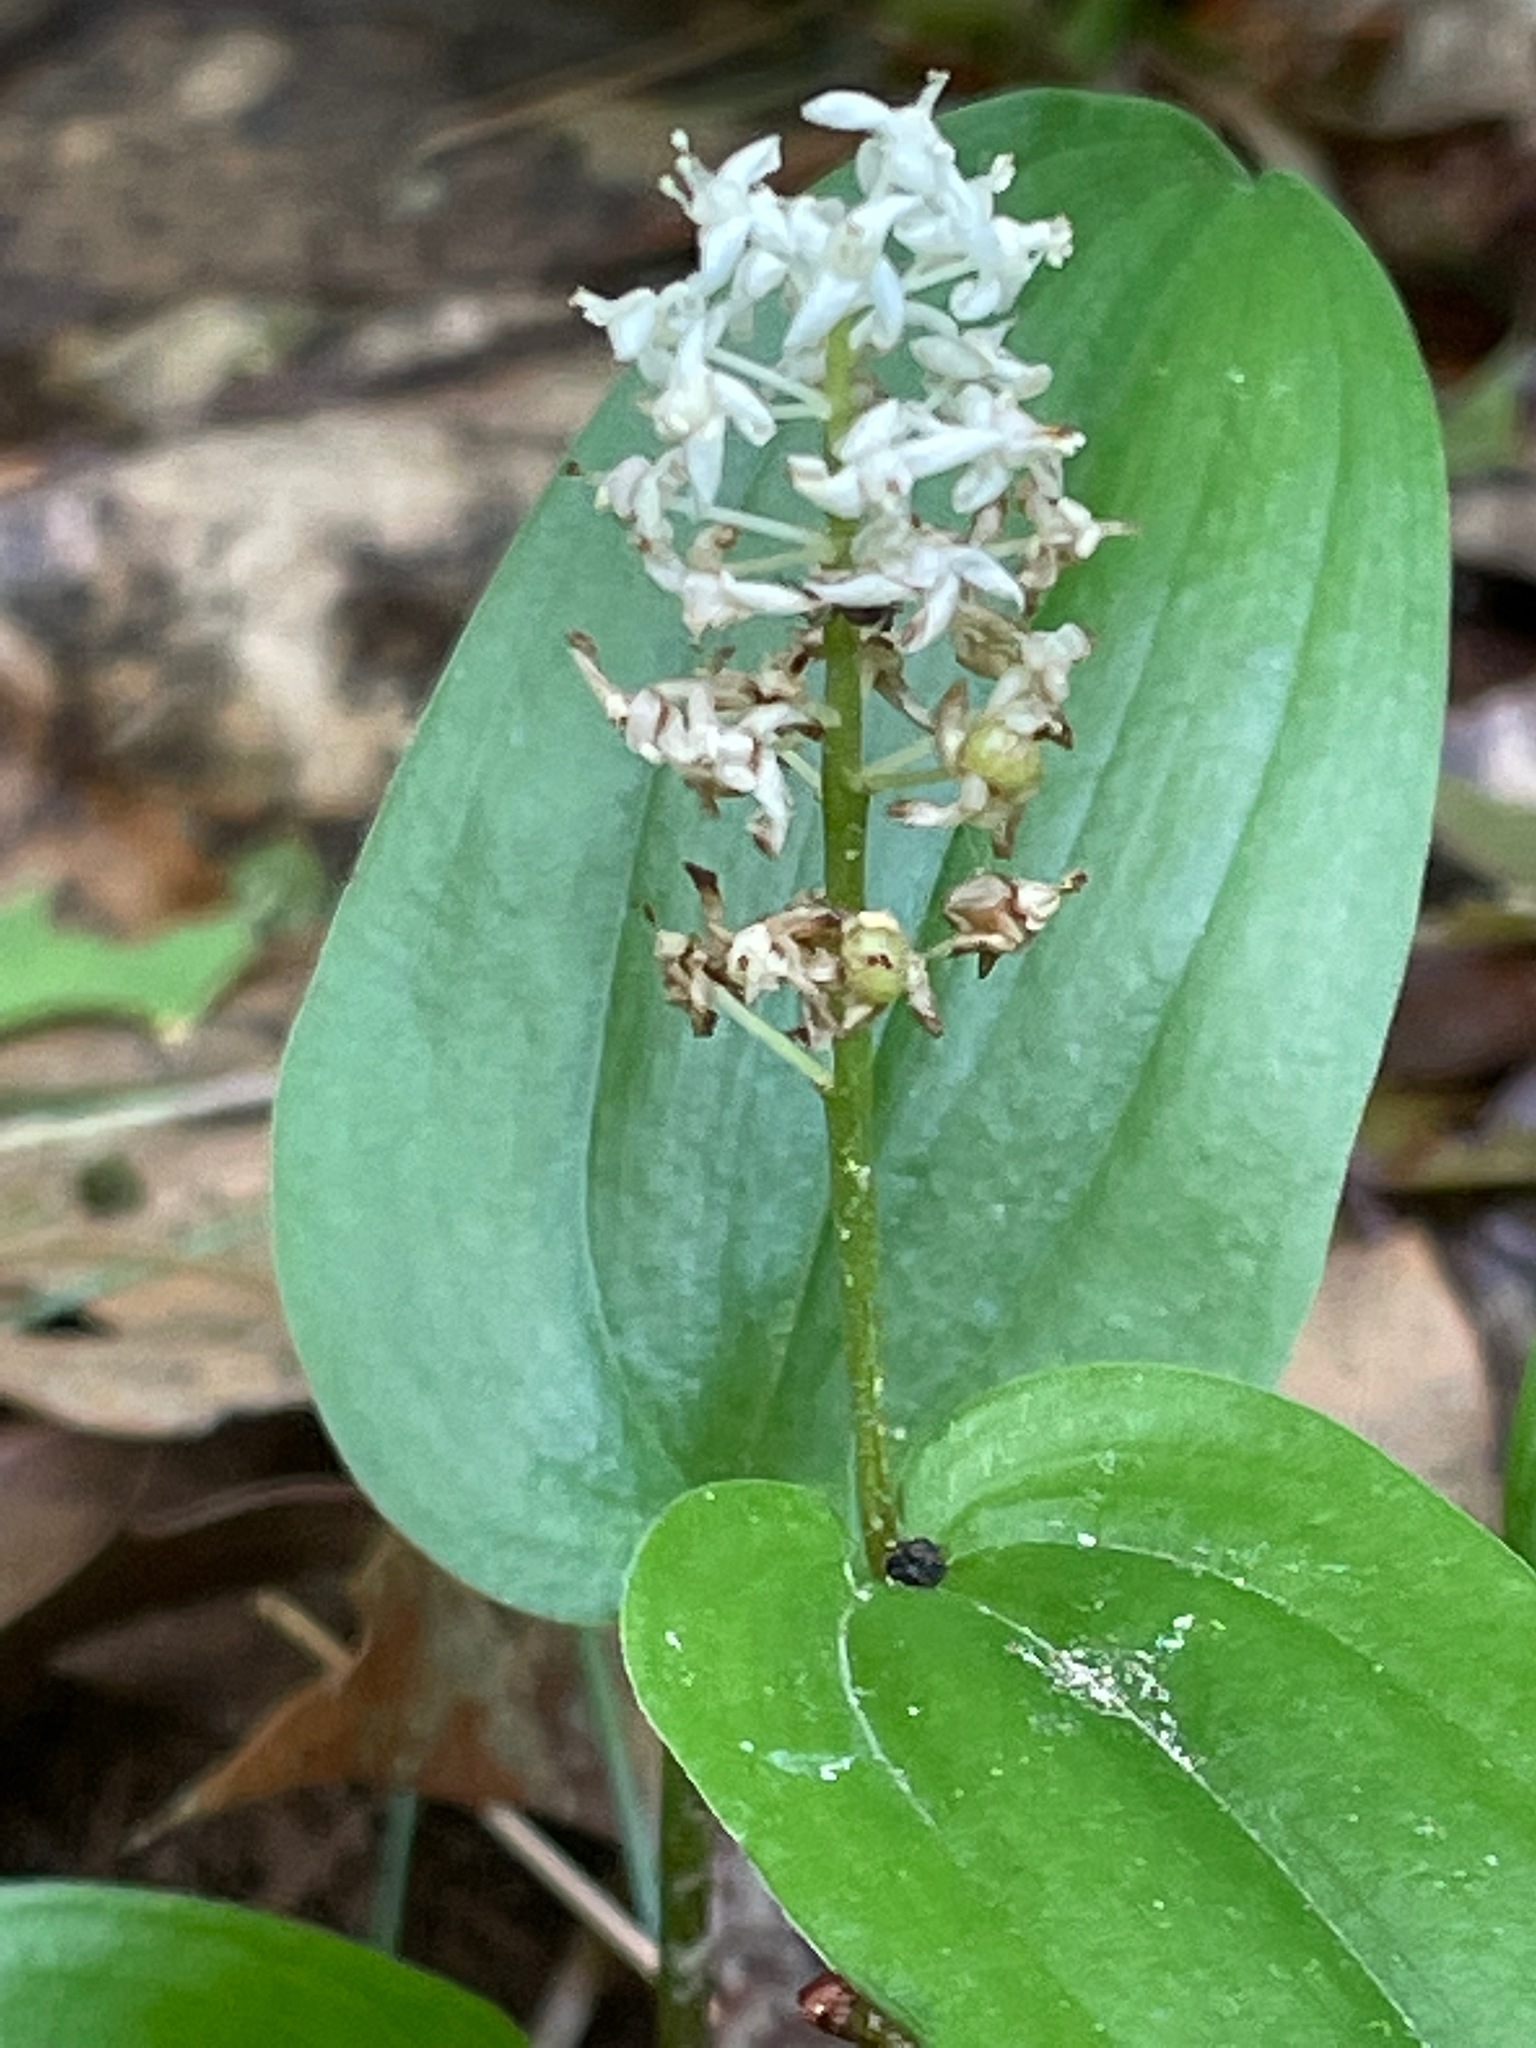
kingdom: Plantae
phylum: Tracheophyta
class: Liliopsida
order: Asparagales
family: Asparagaceae
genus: Maianthemum
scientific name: Maianthemum canadense
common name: False lily-of-the-valley
